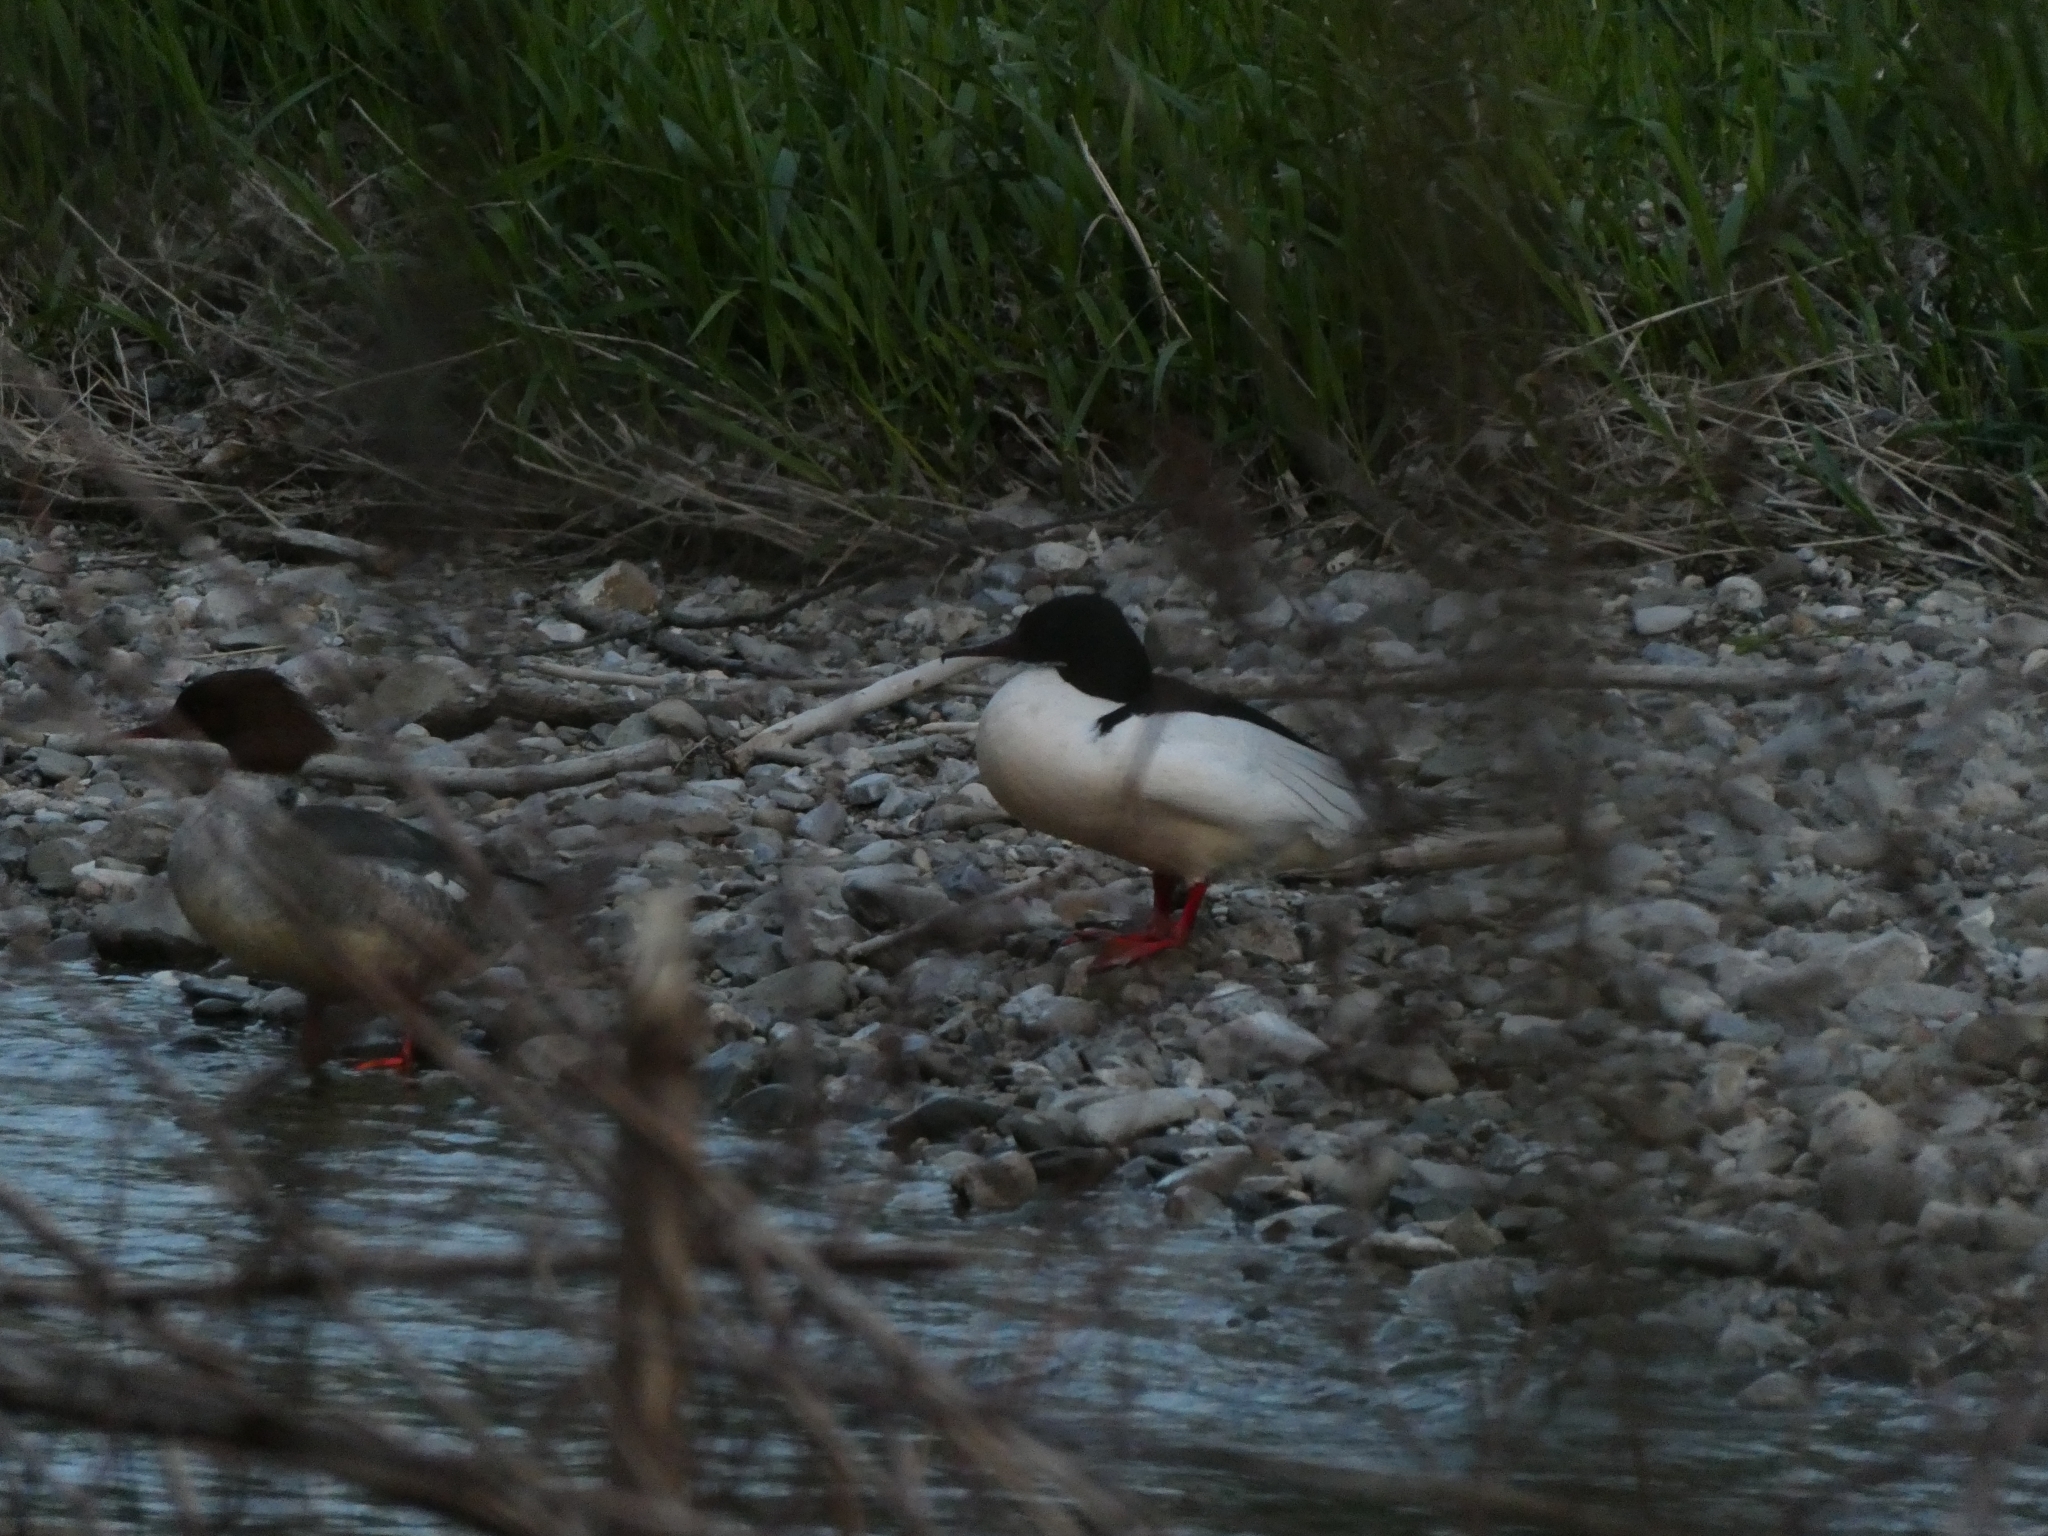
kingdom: Animalia
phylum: Chordata
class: Aves
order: Anseriformes
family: Anatidae
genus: Mergus
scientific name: Mergus merganser
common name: Common merganser
